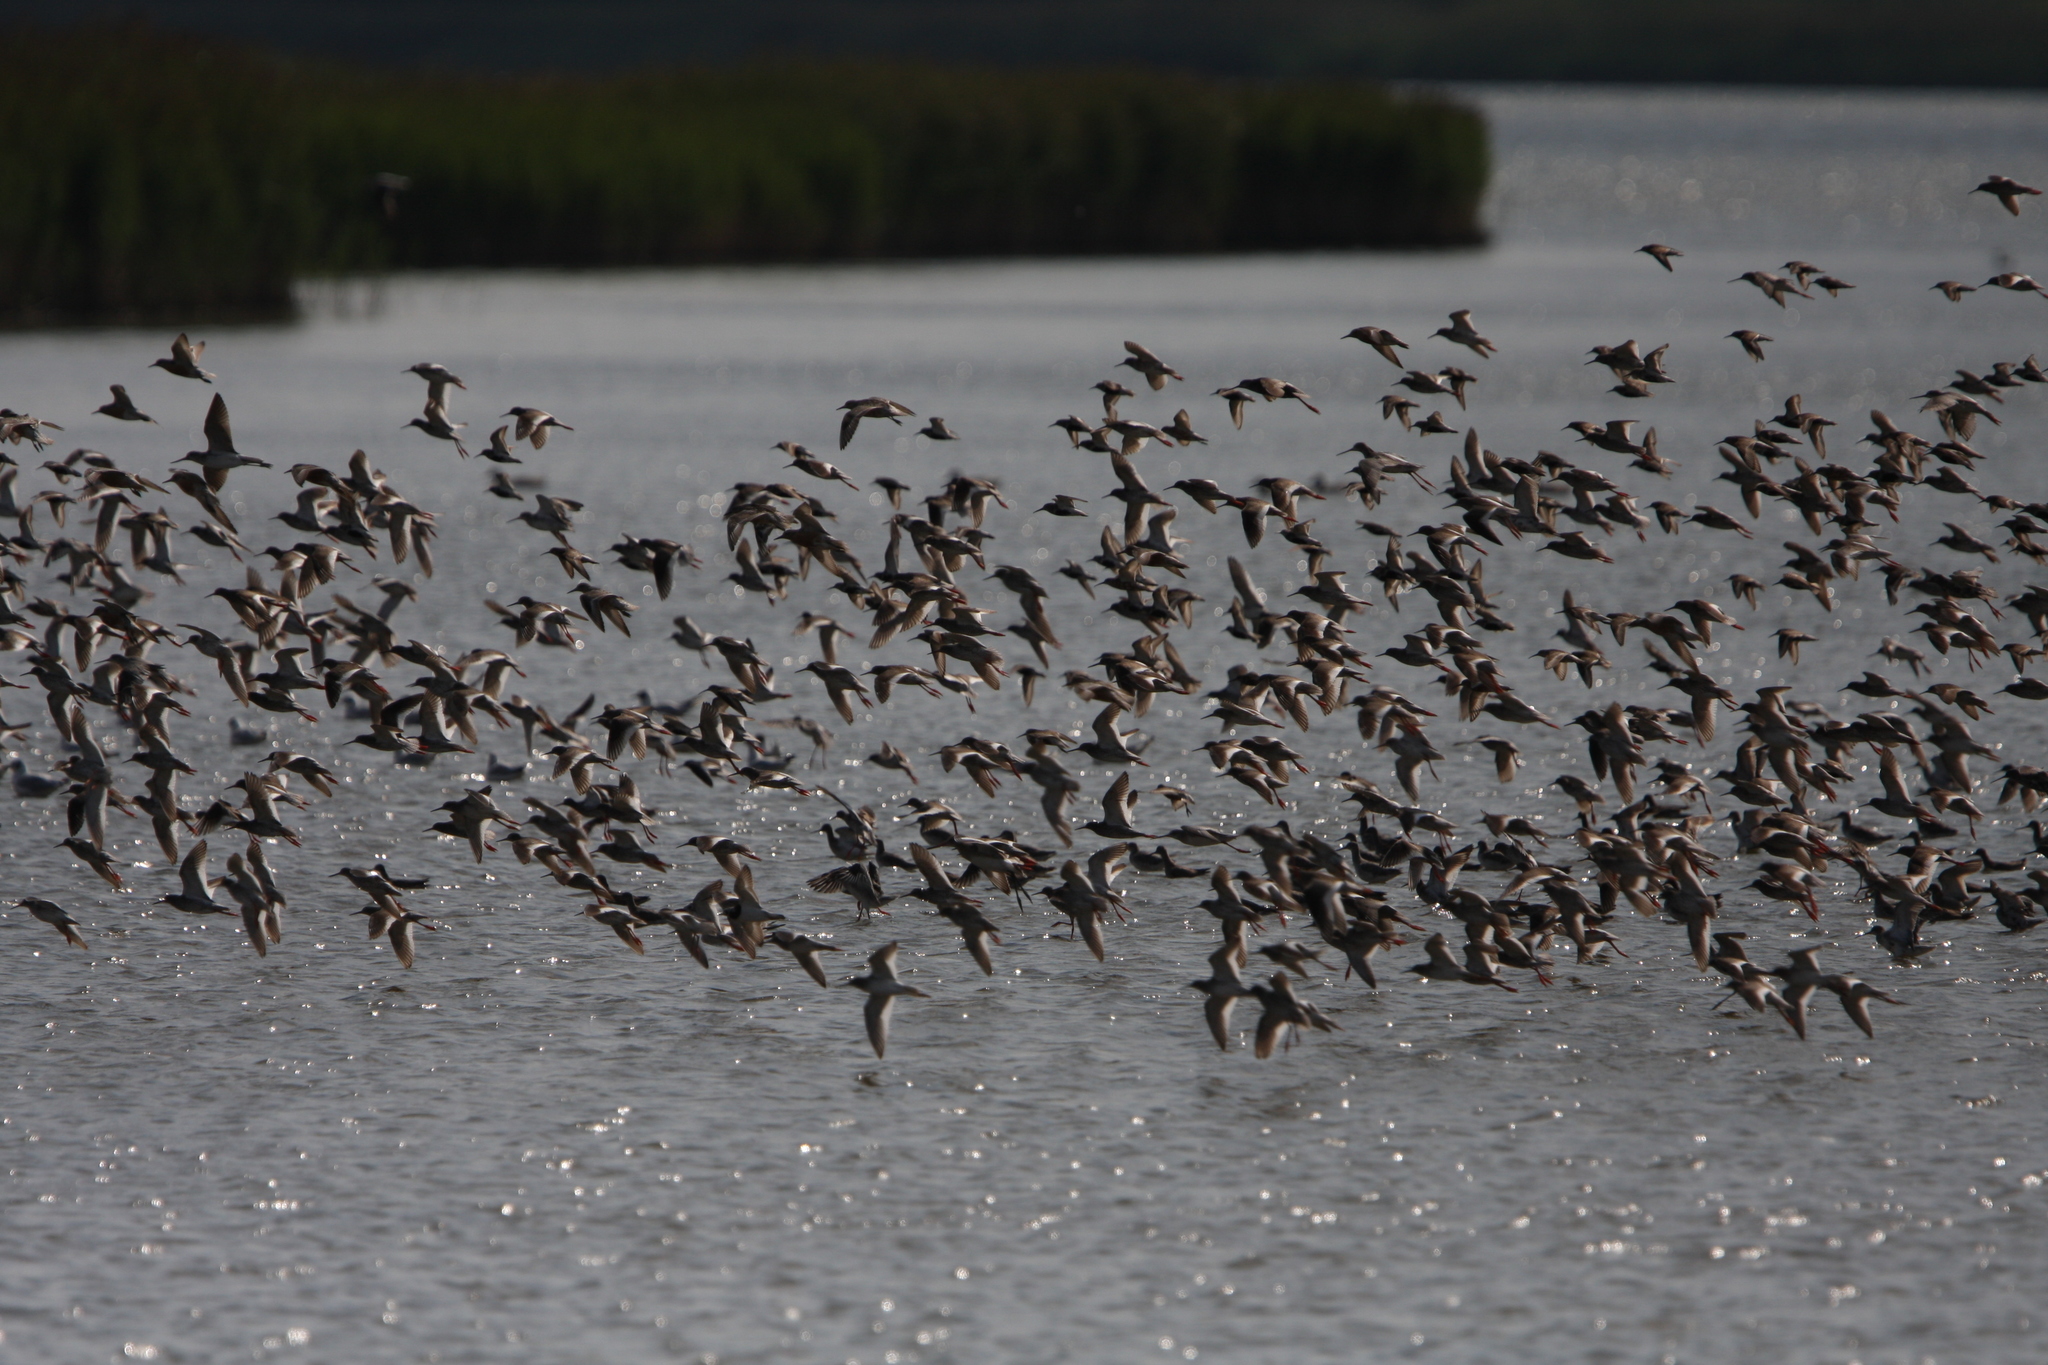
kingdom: Animalia
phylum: Chordata
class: Aves
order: Charadriiformes
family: Scolopacidae
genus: Tringa
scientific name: Tringa totanus
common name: Common redshank
